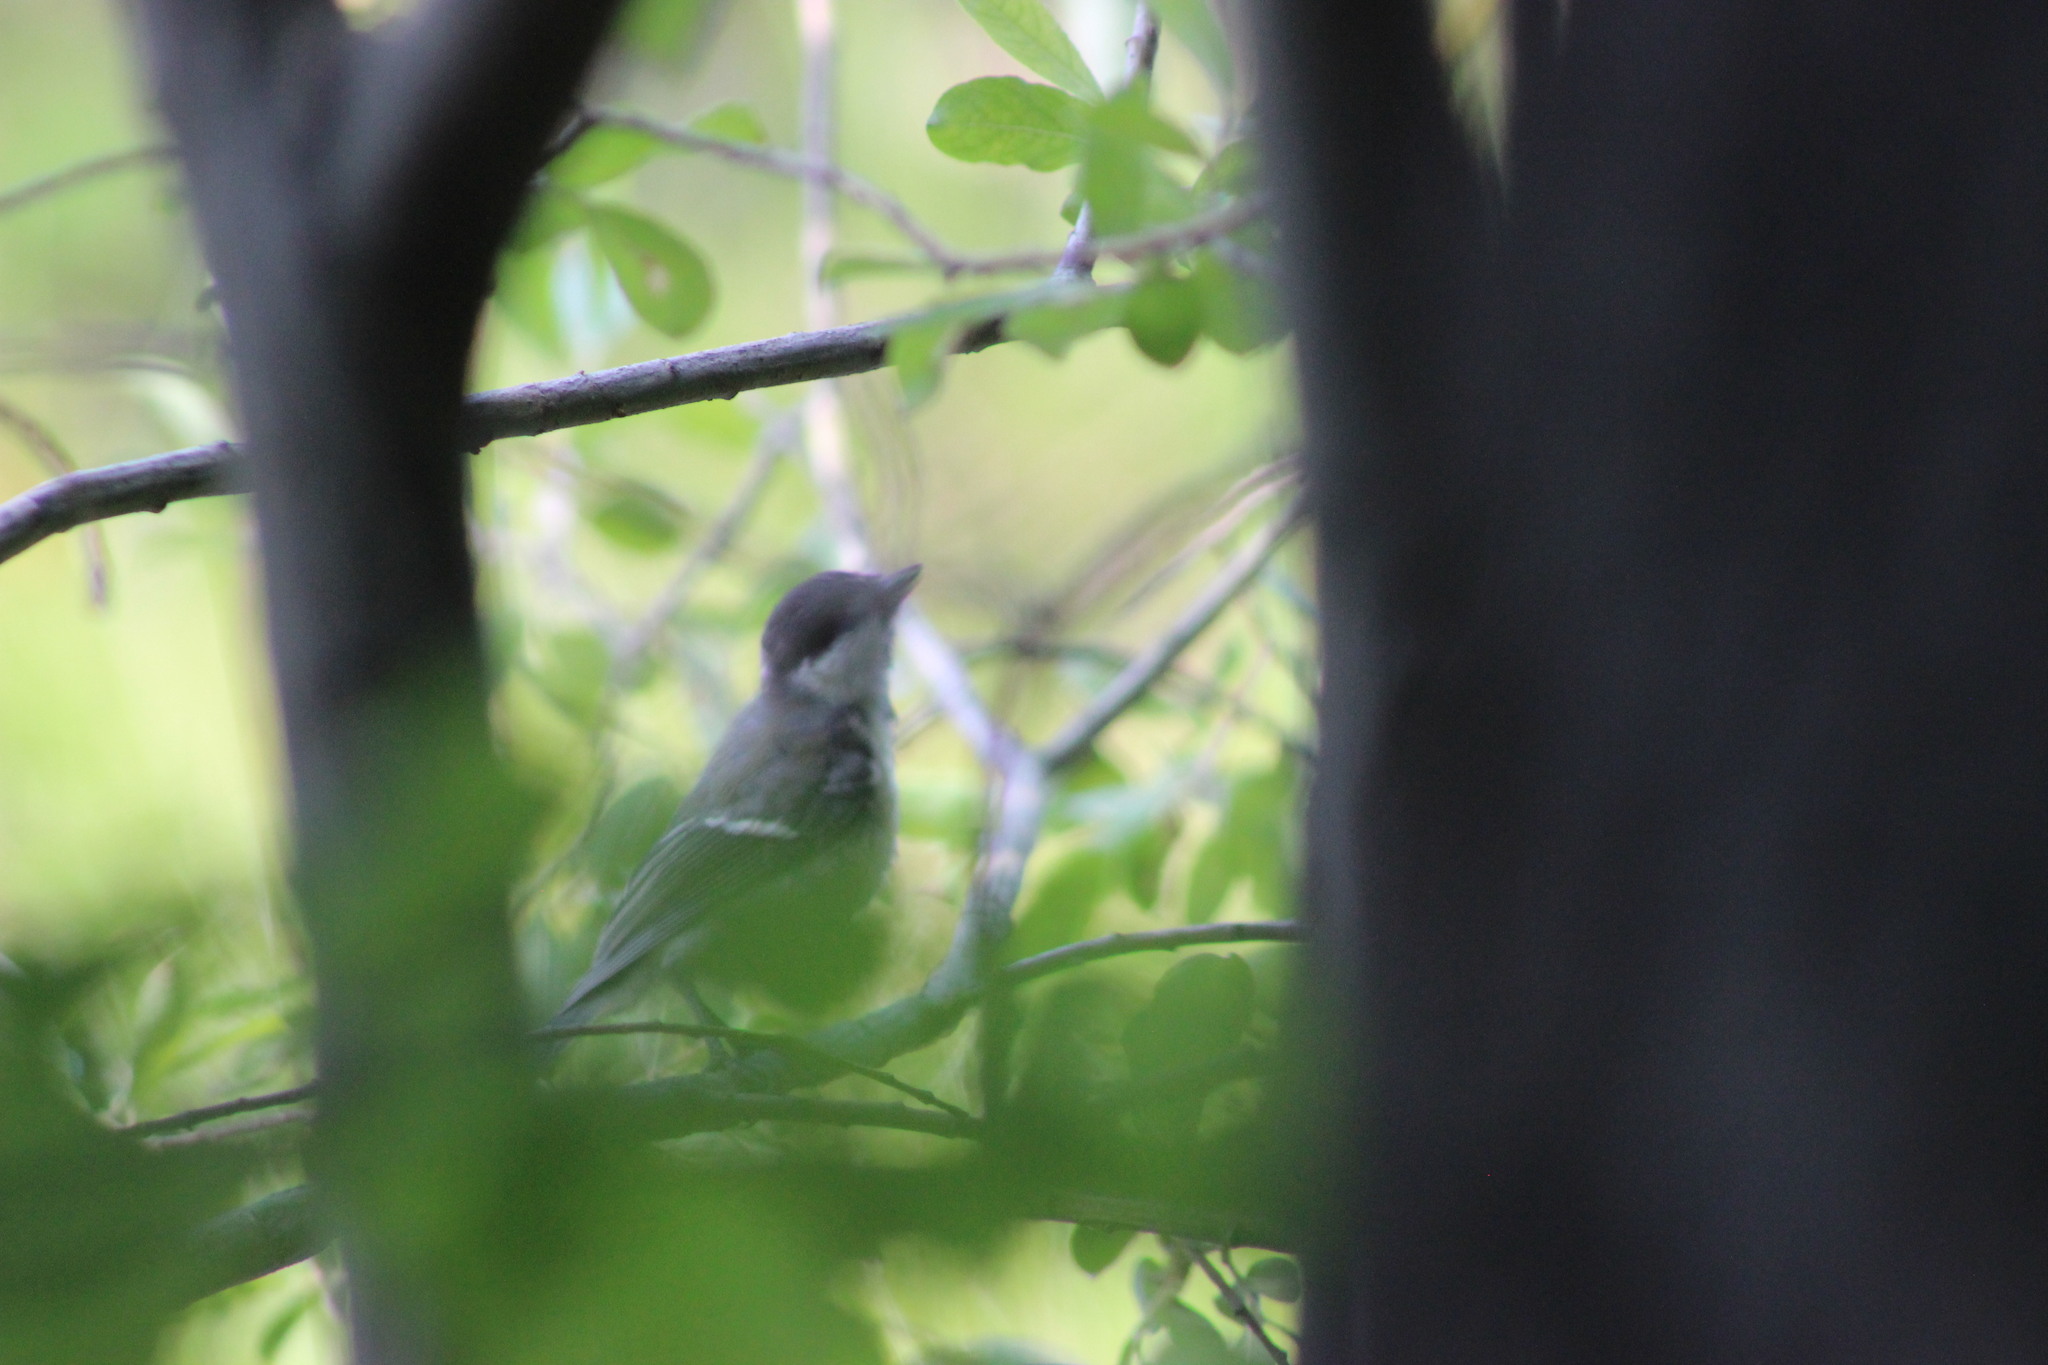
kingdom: Animalia
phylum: Chordata
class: Aves
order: Passeriformes
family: Paridae
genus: Parus
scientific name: Parus major
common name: Great tit
